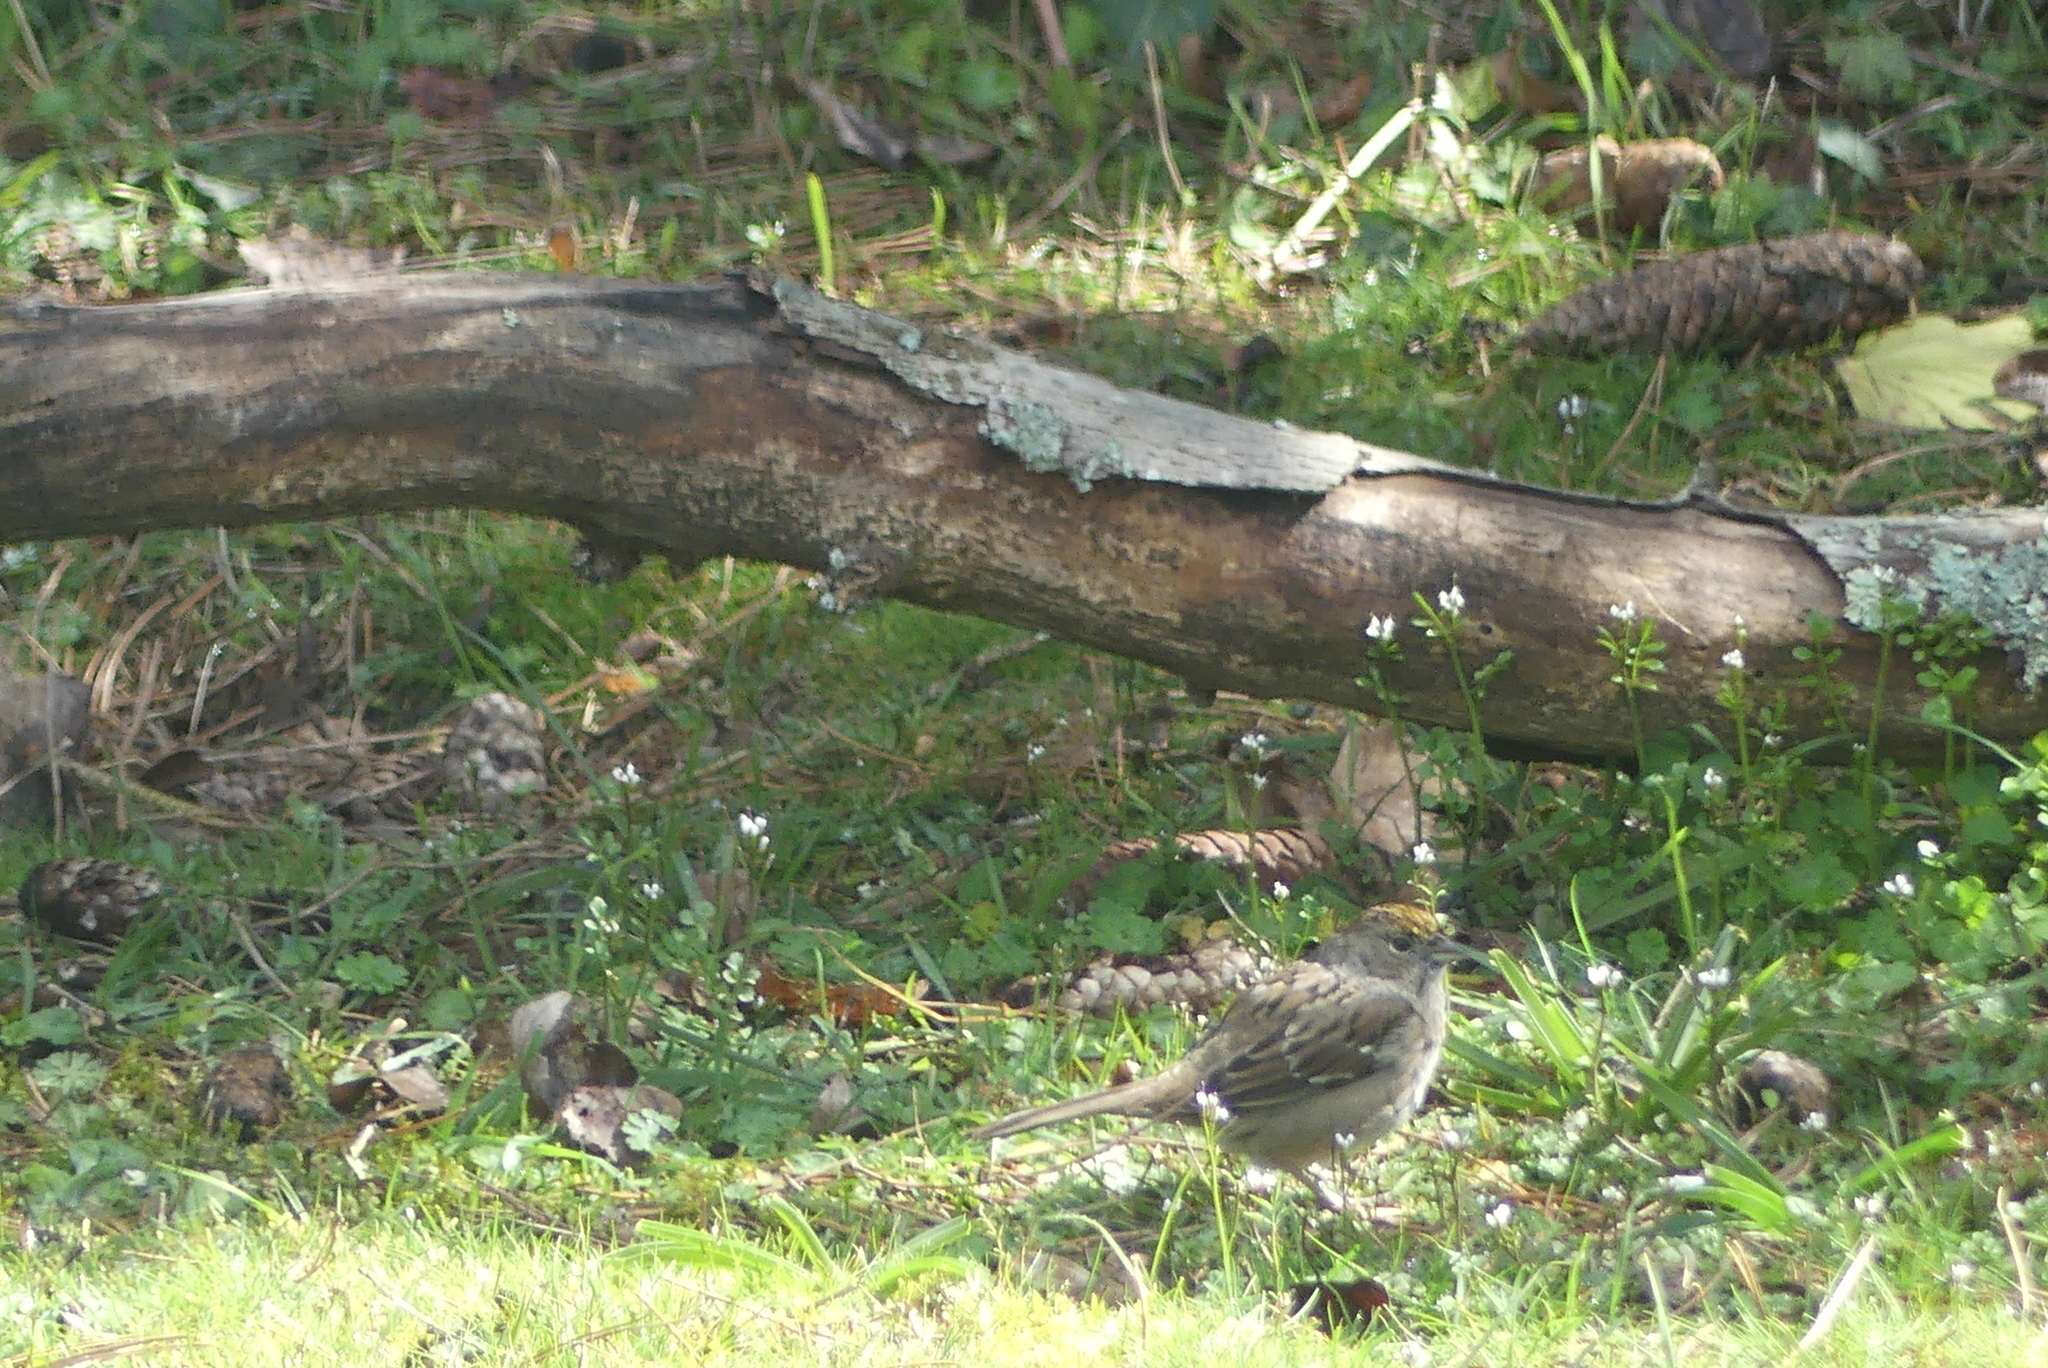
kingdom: Animalia
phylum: Chordata
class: Aves
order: Passeriformes
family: Passerellidae
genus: Zonotrichia
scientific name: Zonotrichia atricapilla
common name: Golden-crowned sparrow
